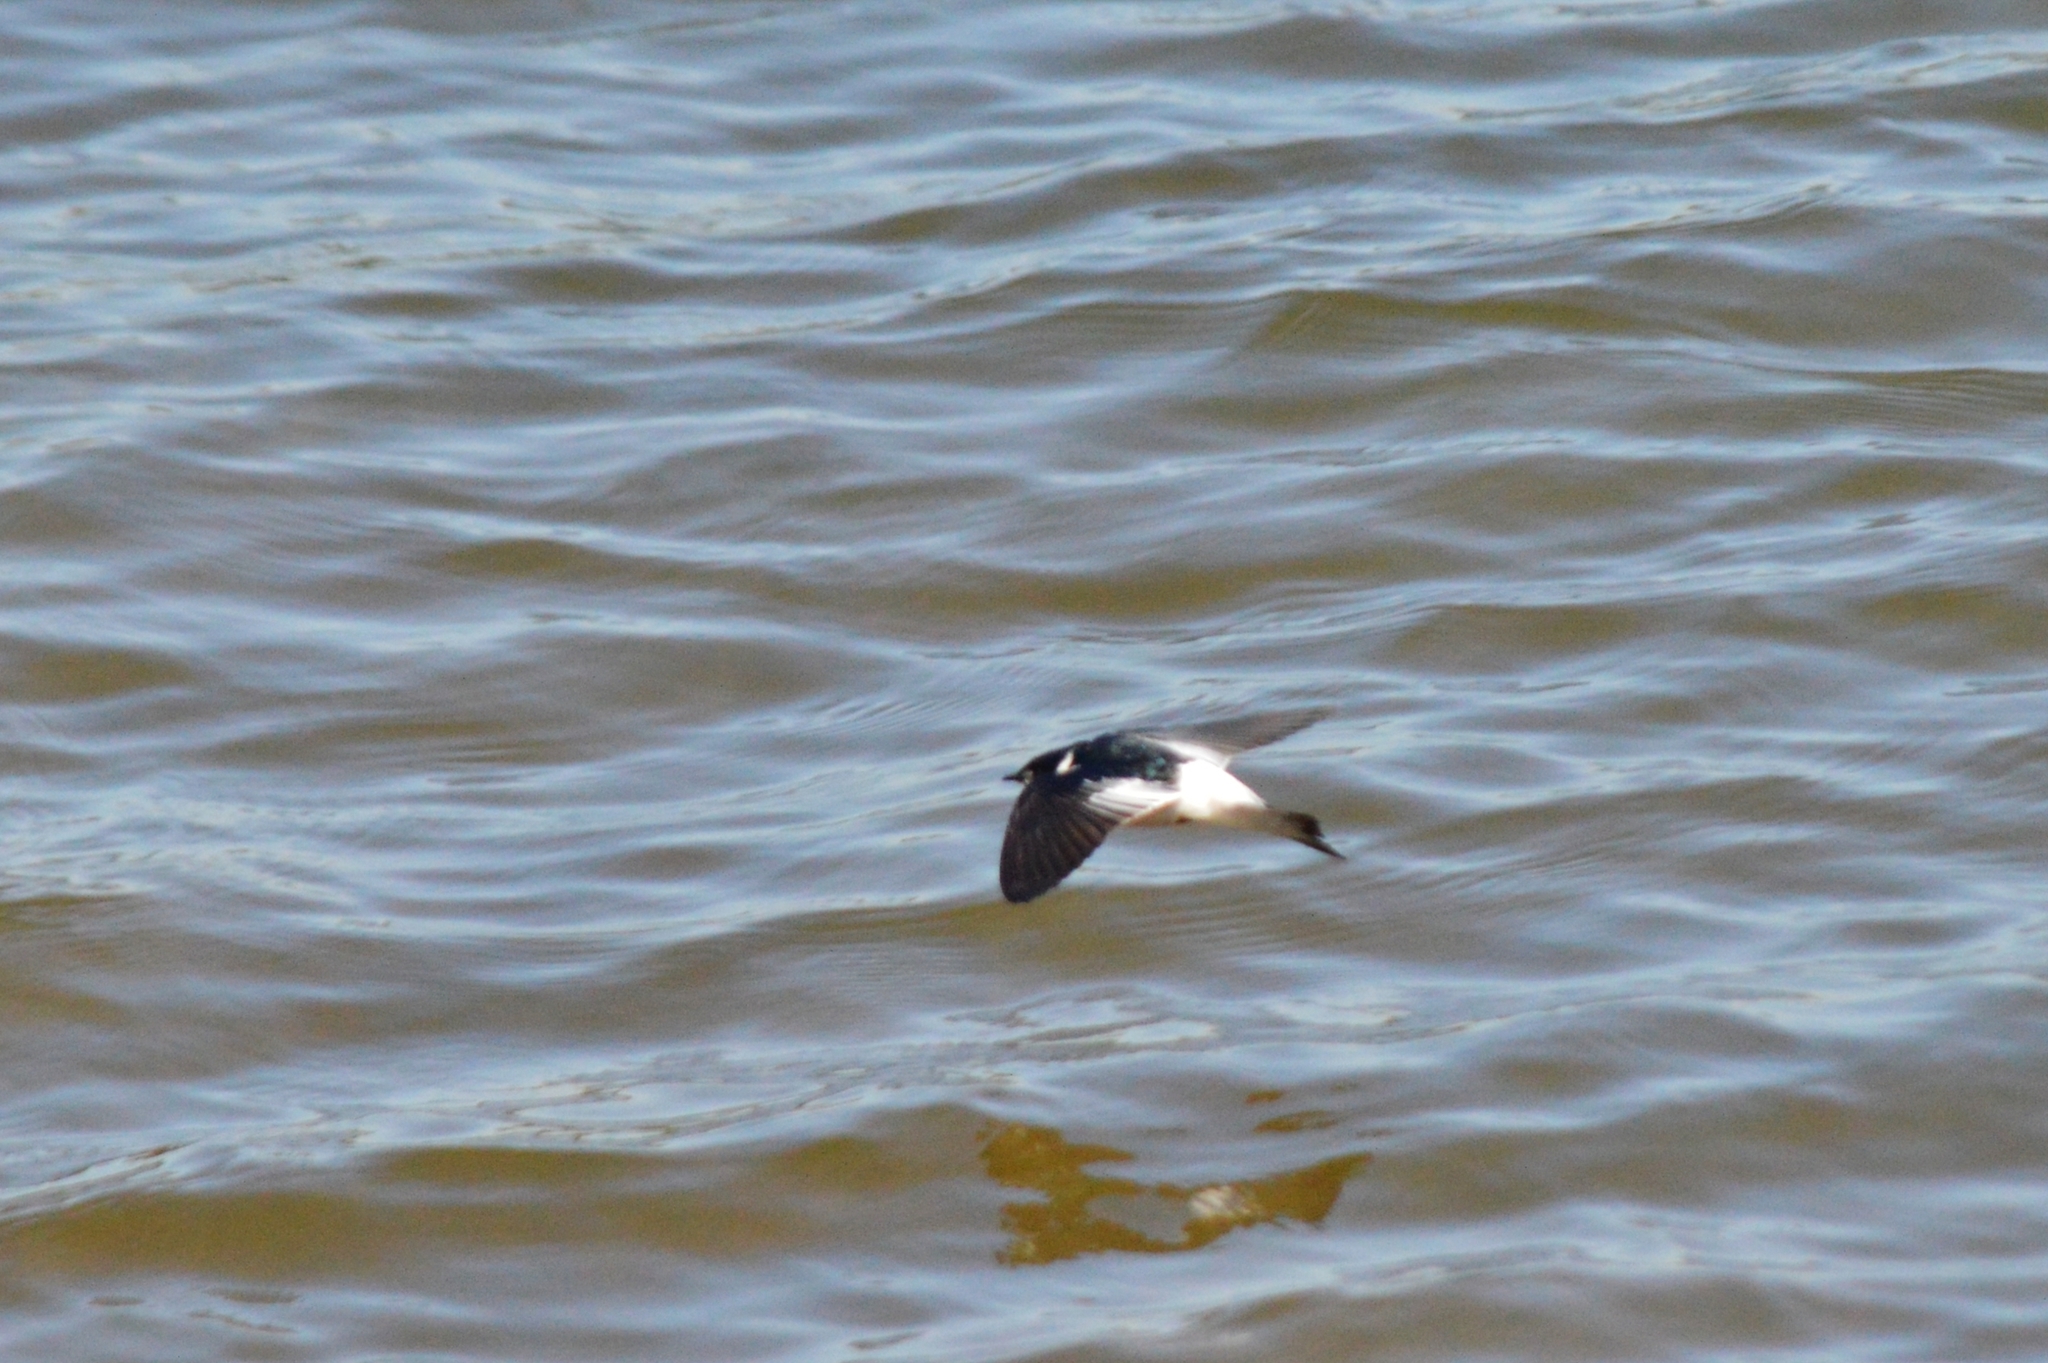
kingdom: Animalia
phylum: Chordata
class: Aves
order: Passeriformes
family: Hirundinidae
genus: Tachycineta
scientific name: Tachycineta albiventer
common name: White-winged swallow
